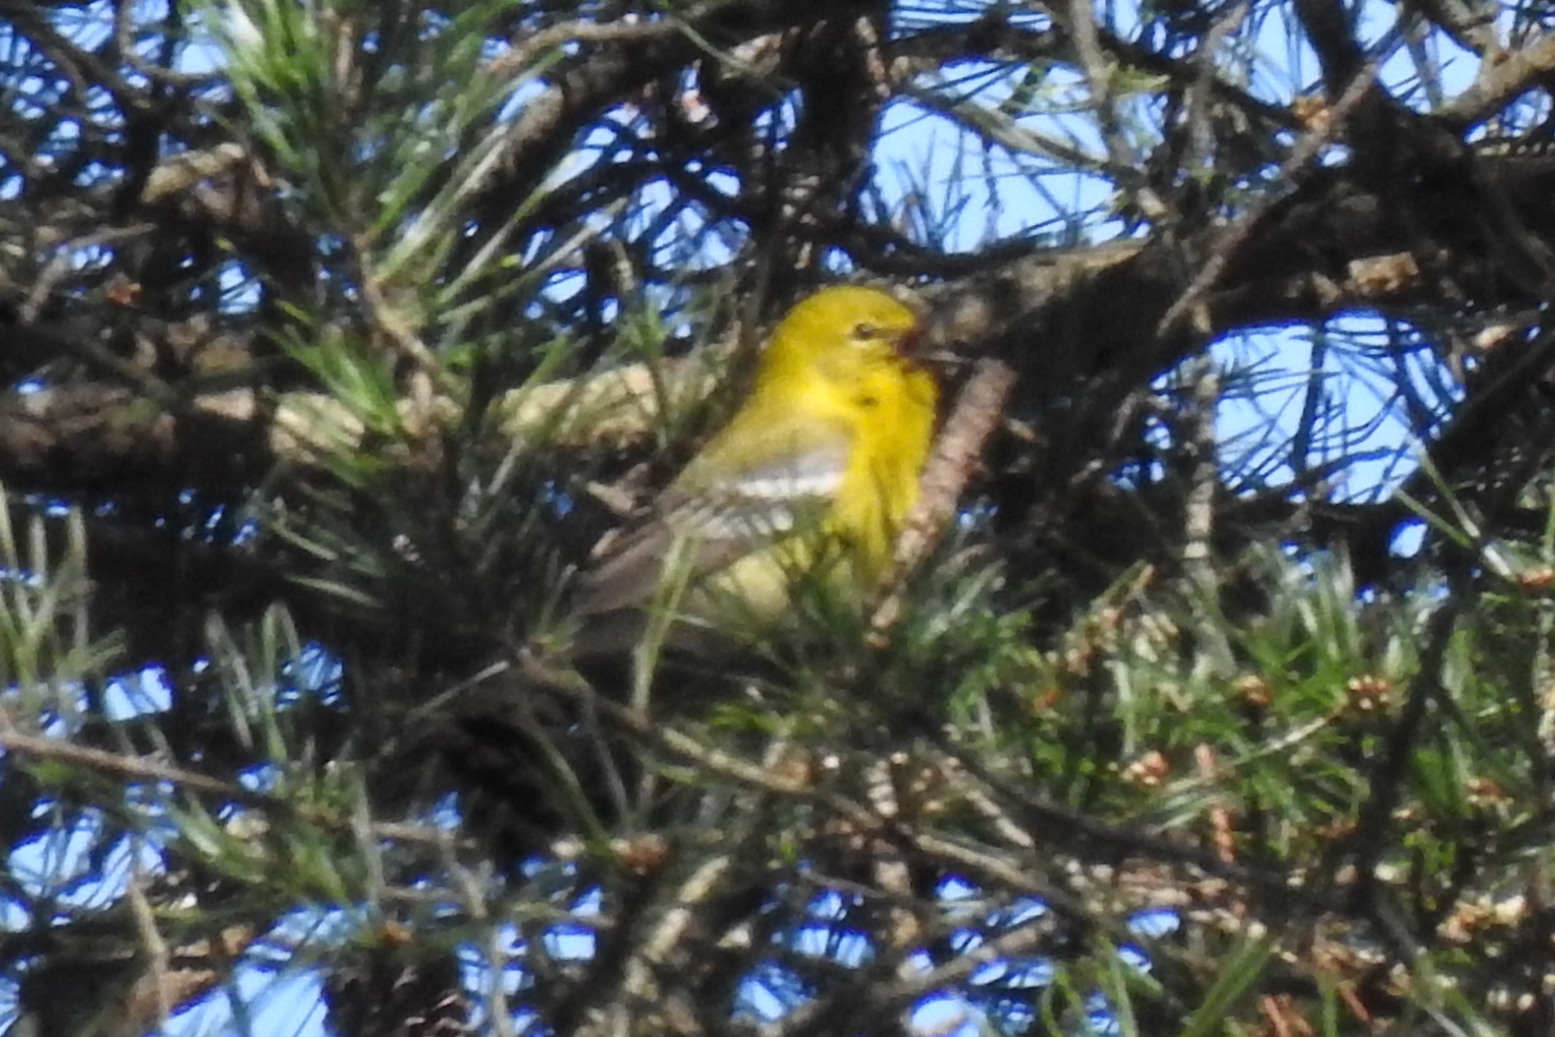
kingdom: Animalia
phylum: Chordata
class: Aves
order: Passeriformes
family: Parulidae
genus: Setophaga
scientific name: Setophaga pinus
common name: Pine warbler
